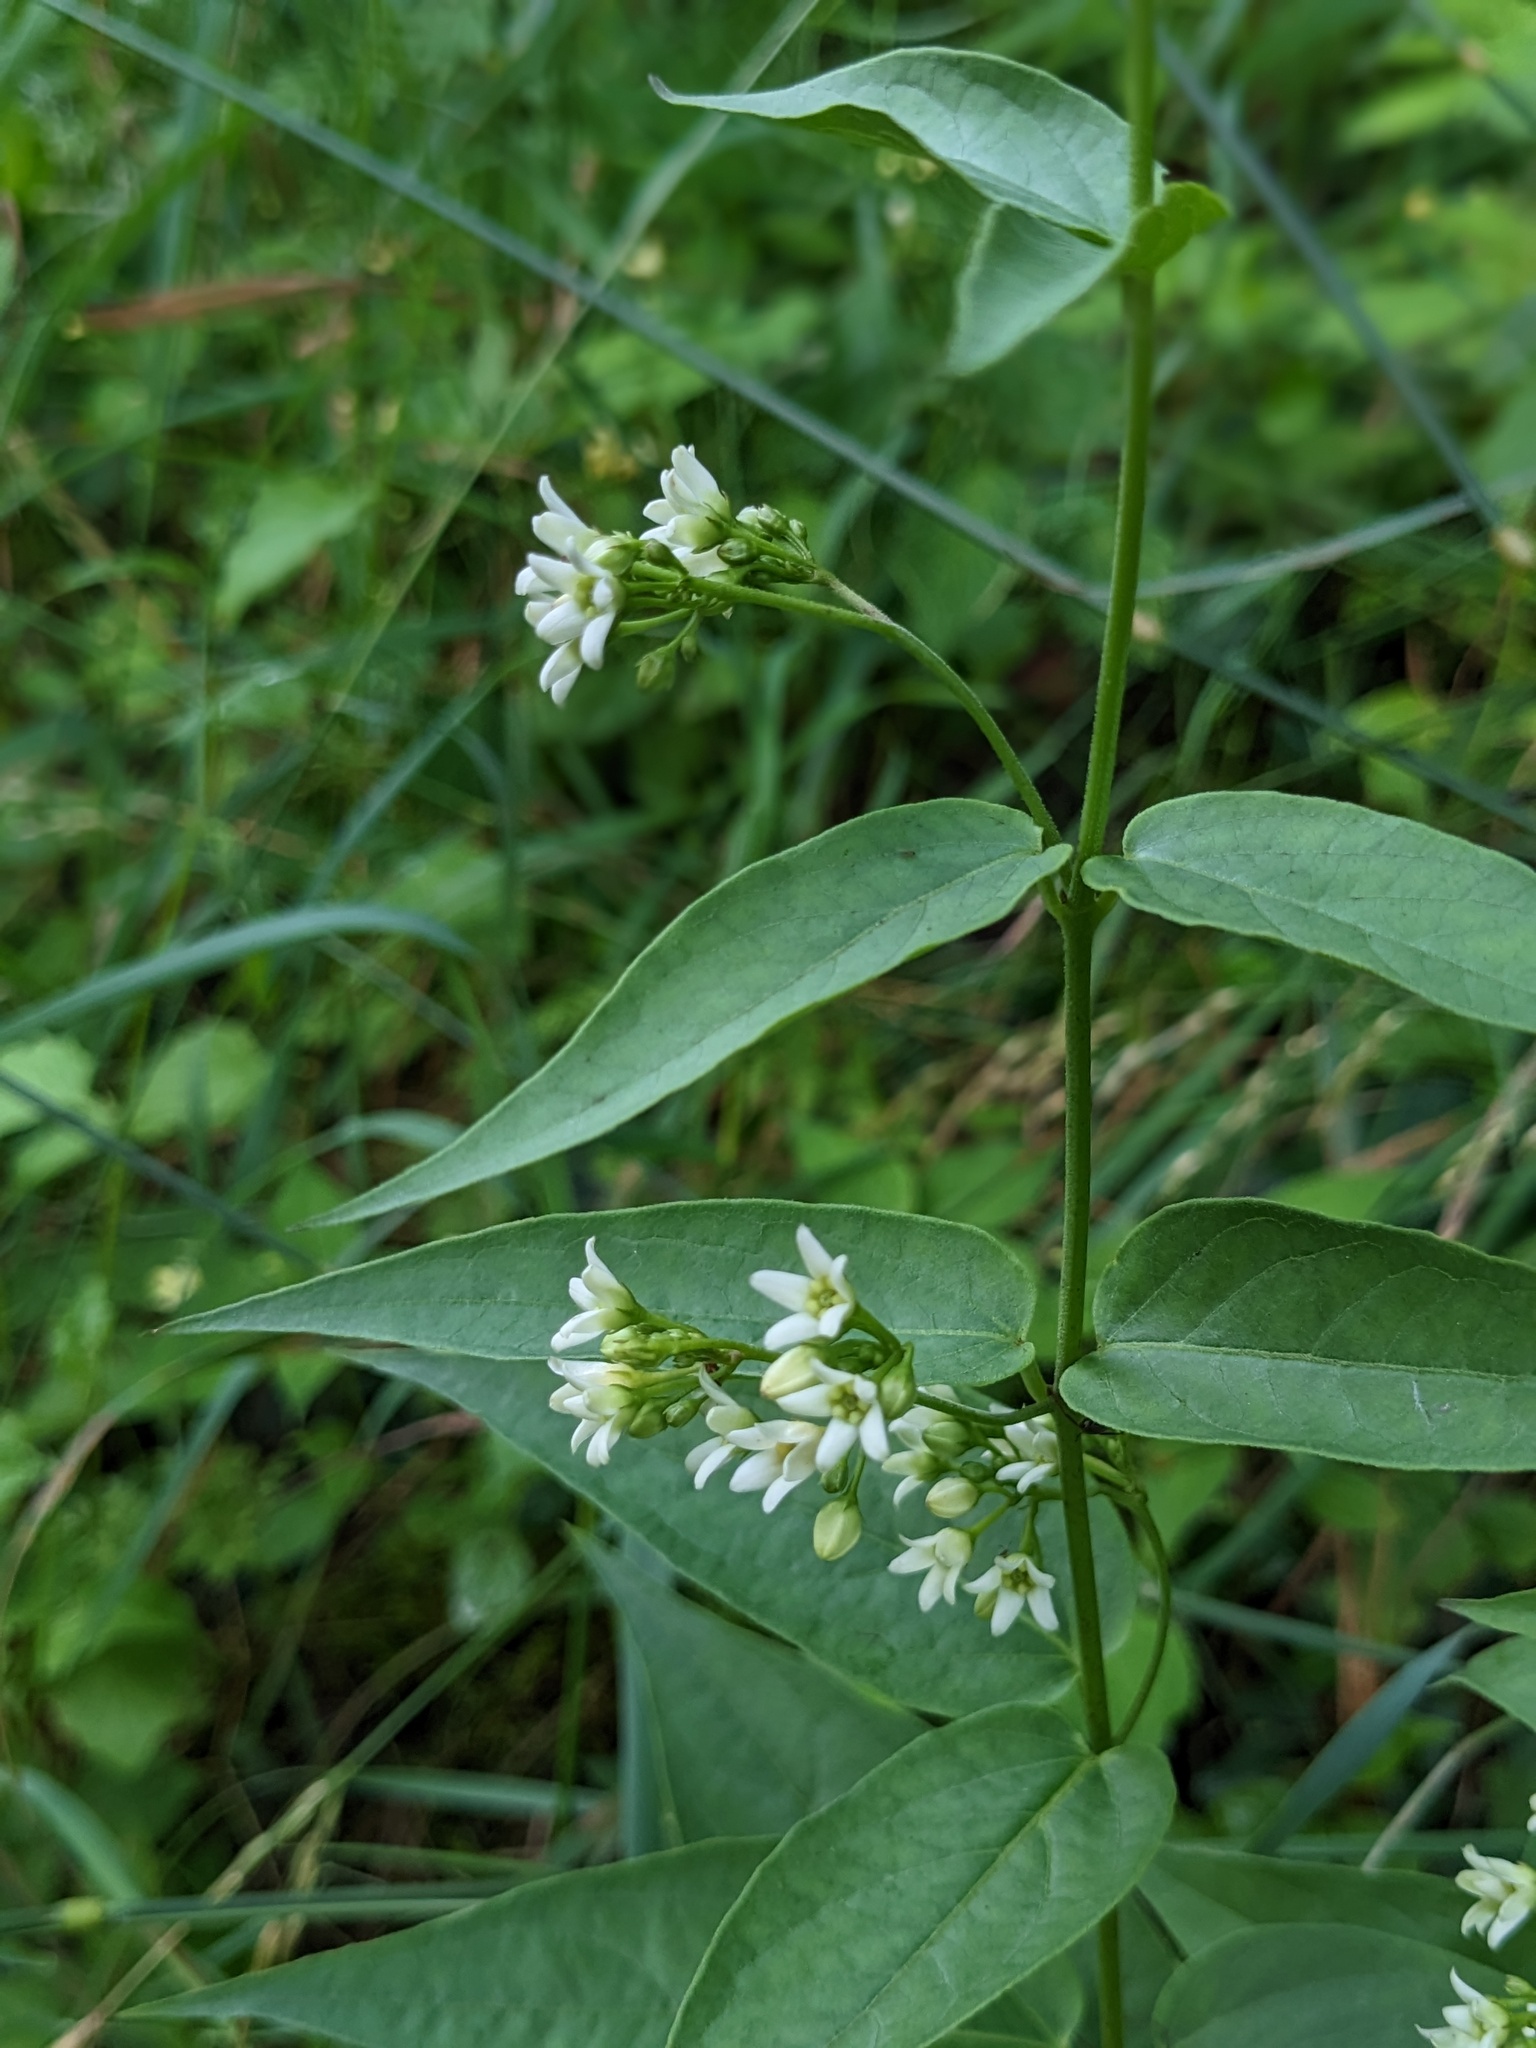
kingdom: Plantae
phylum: Tracheophyta
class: Magnoliopsida
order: Gentianales
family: Apocynaceae
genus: Vincetoxicum
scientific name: Vincetoxicum hirundinaria
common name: White swallowwort
